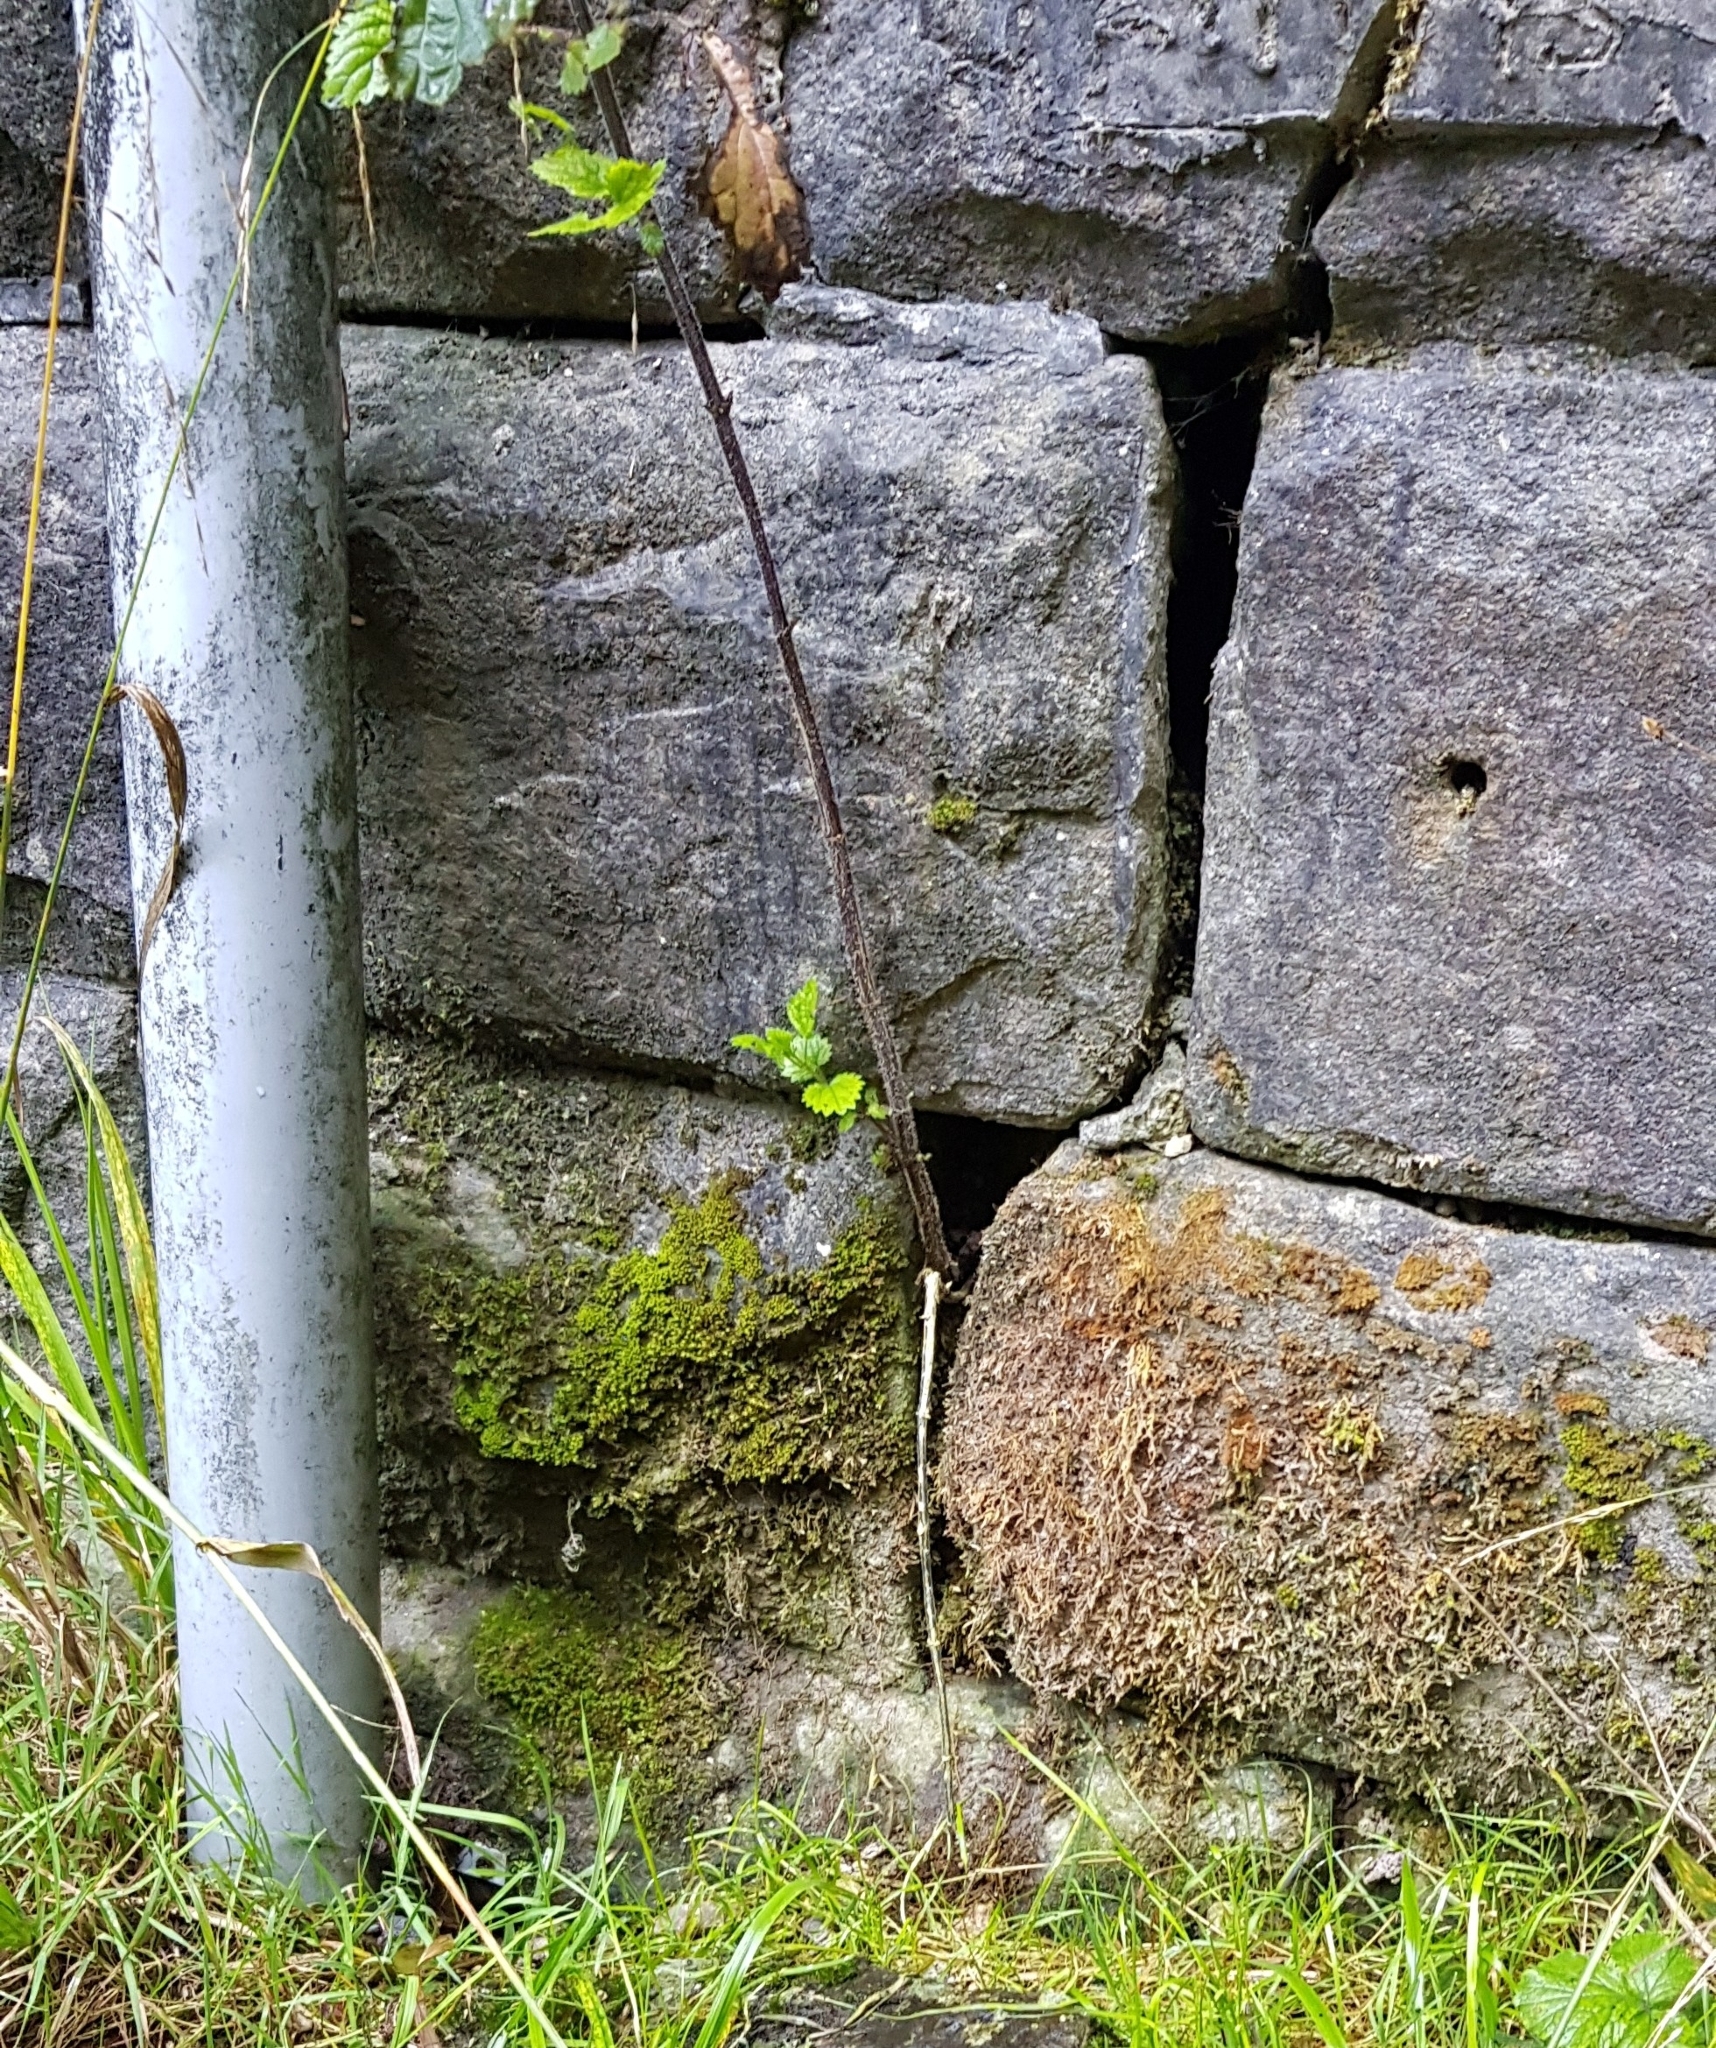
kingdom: Plantae
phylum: Bryophyta
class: Bryopsida
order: Orthotrichales
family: Orthotrichaceae
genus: Zygodon
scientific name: Zygodon viridissimus
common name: Green yoke moss
